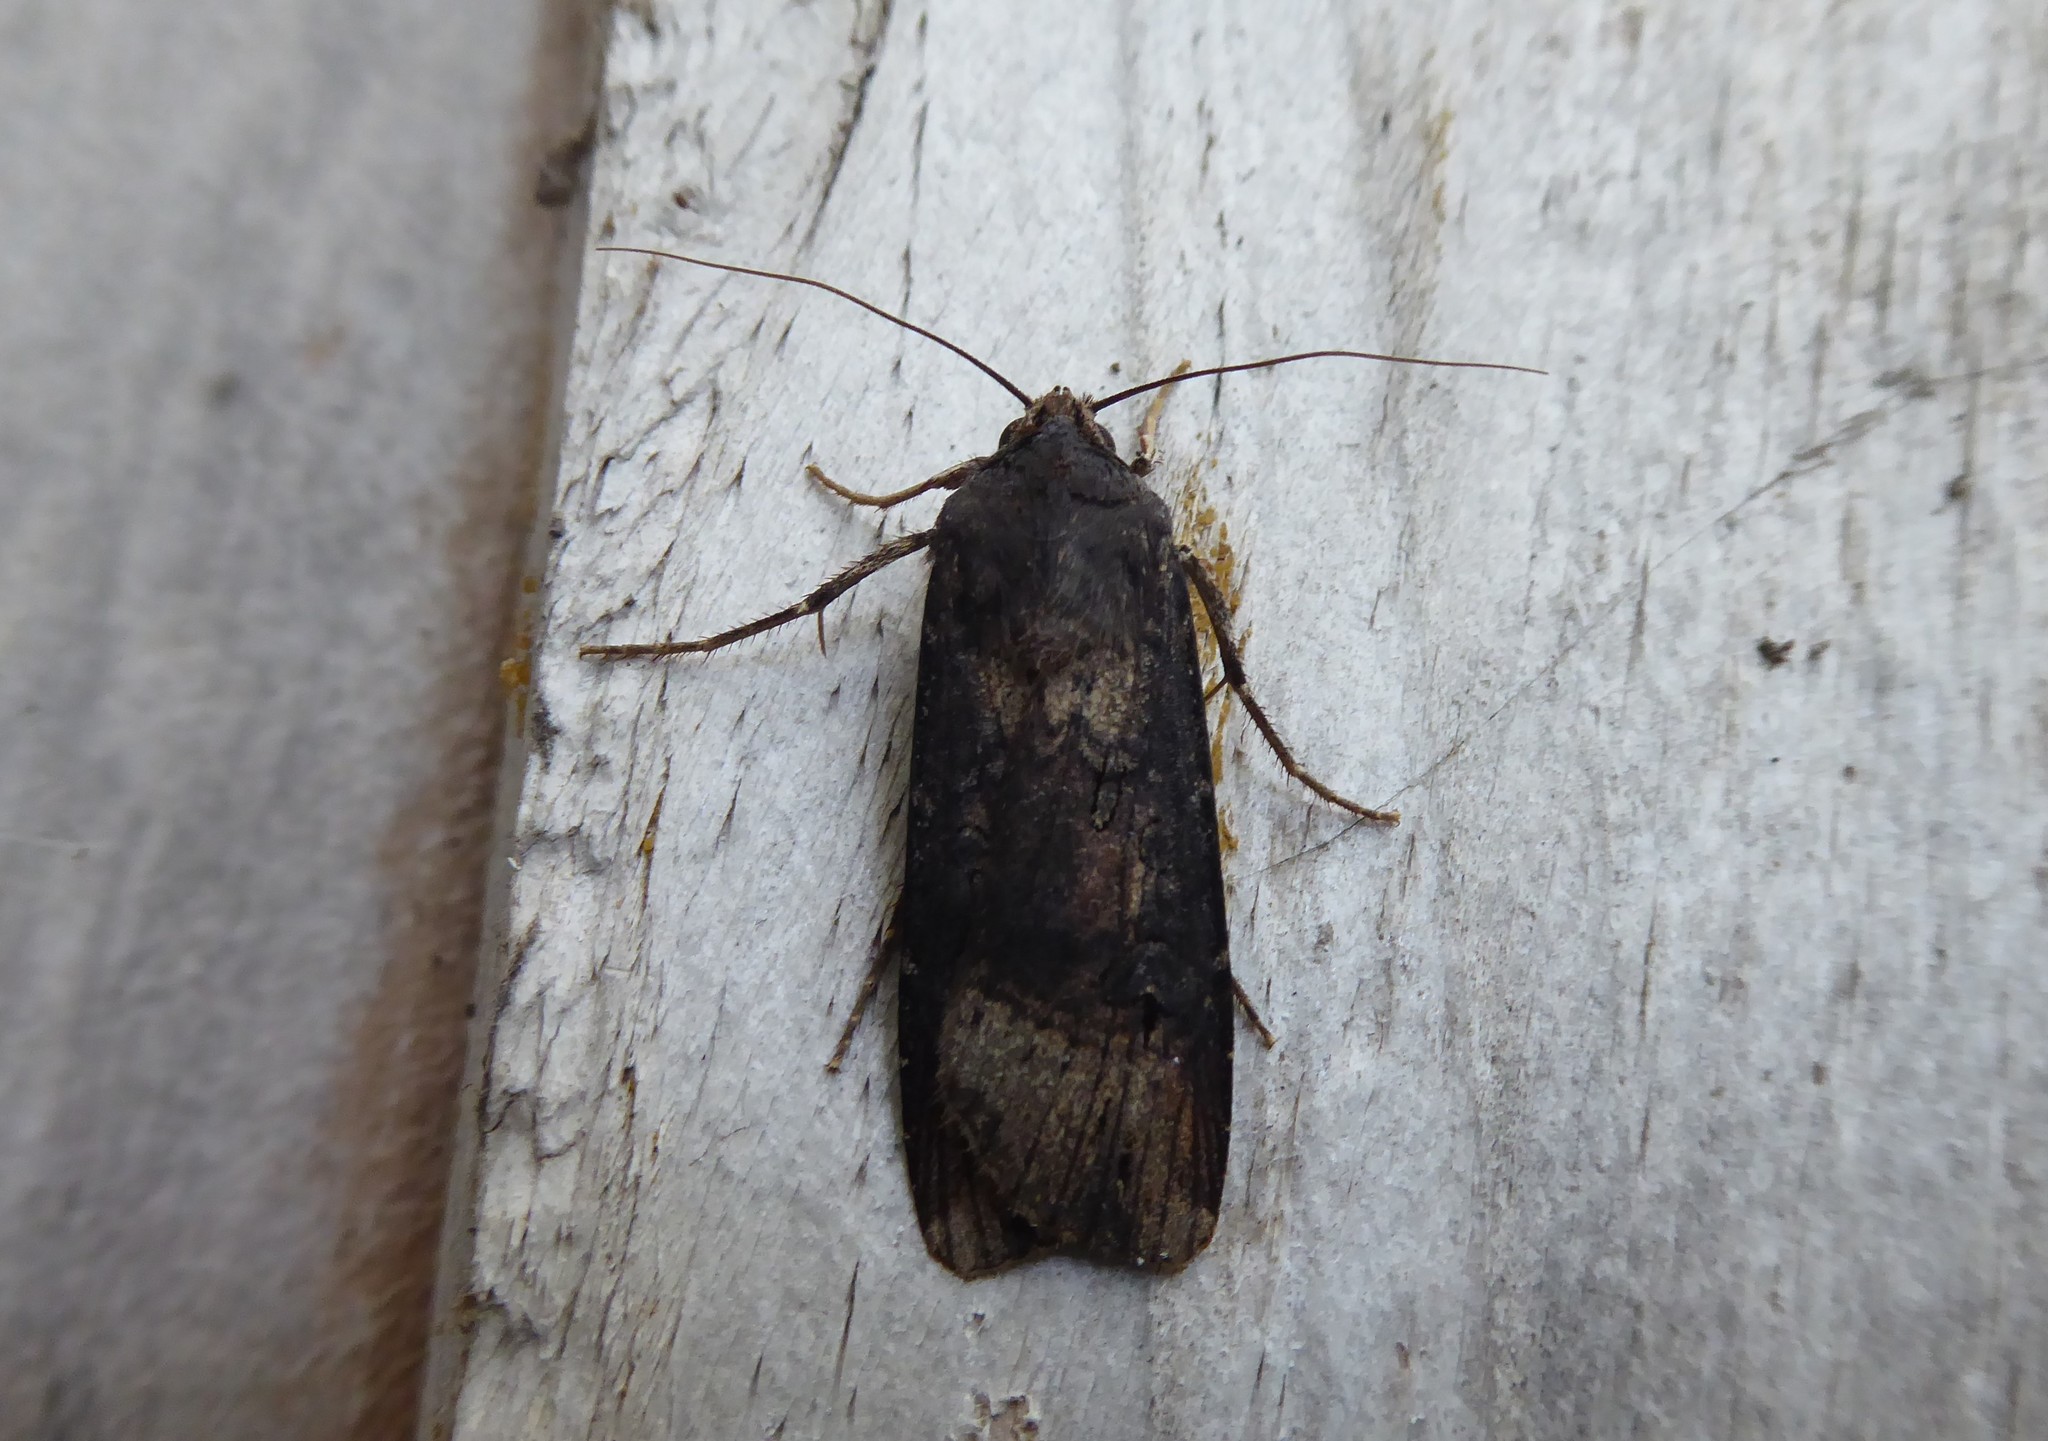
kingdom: Animalia
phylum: Arthropoda
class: Insecta
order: Lepidoptera
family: Noctuidae
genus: Agrotis
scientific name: Agrotis ipsilon
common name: Dark sword-grass
